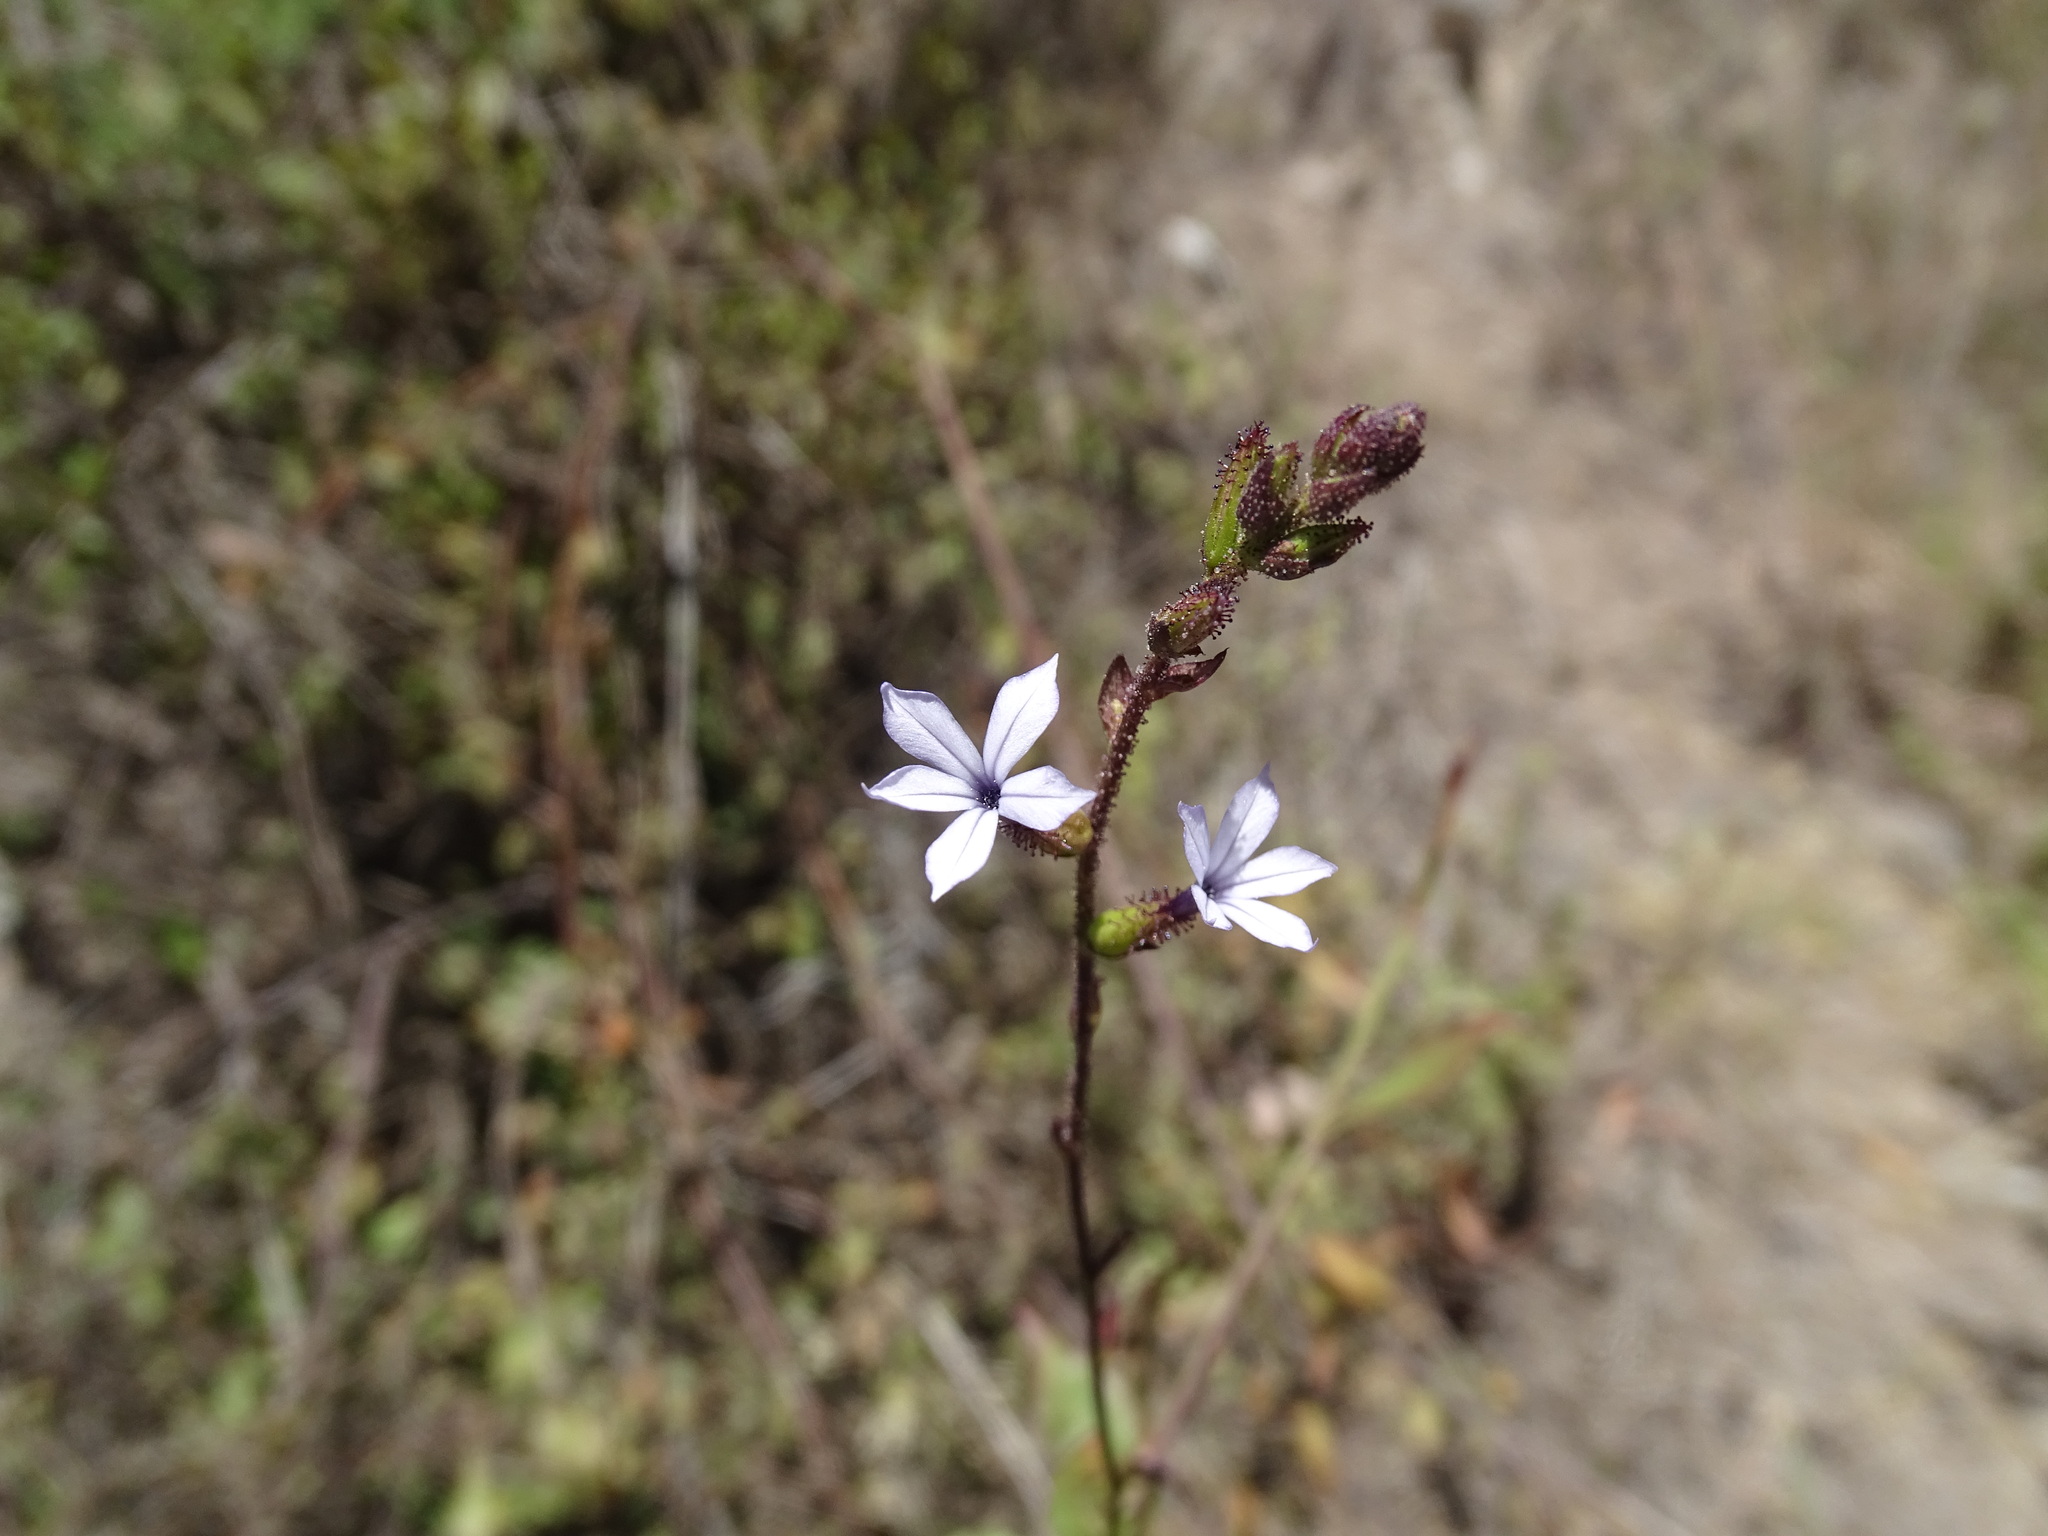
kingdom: Plantae
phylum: Tracheophyta
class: Magnoliopsida
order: Caryophyllales
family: Plumbaginaceae
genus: Plumbago
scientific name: Plumbago pulchella
